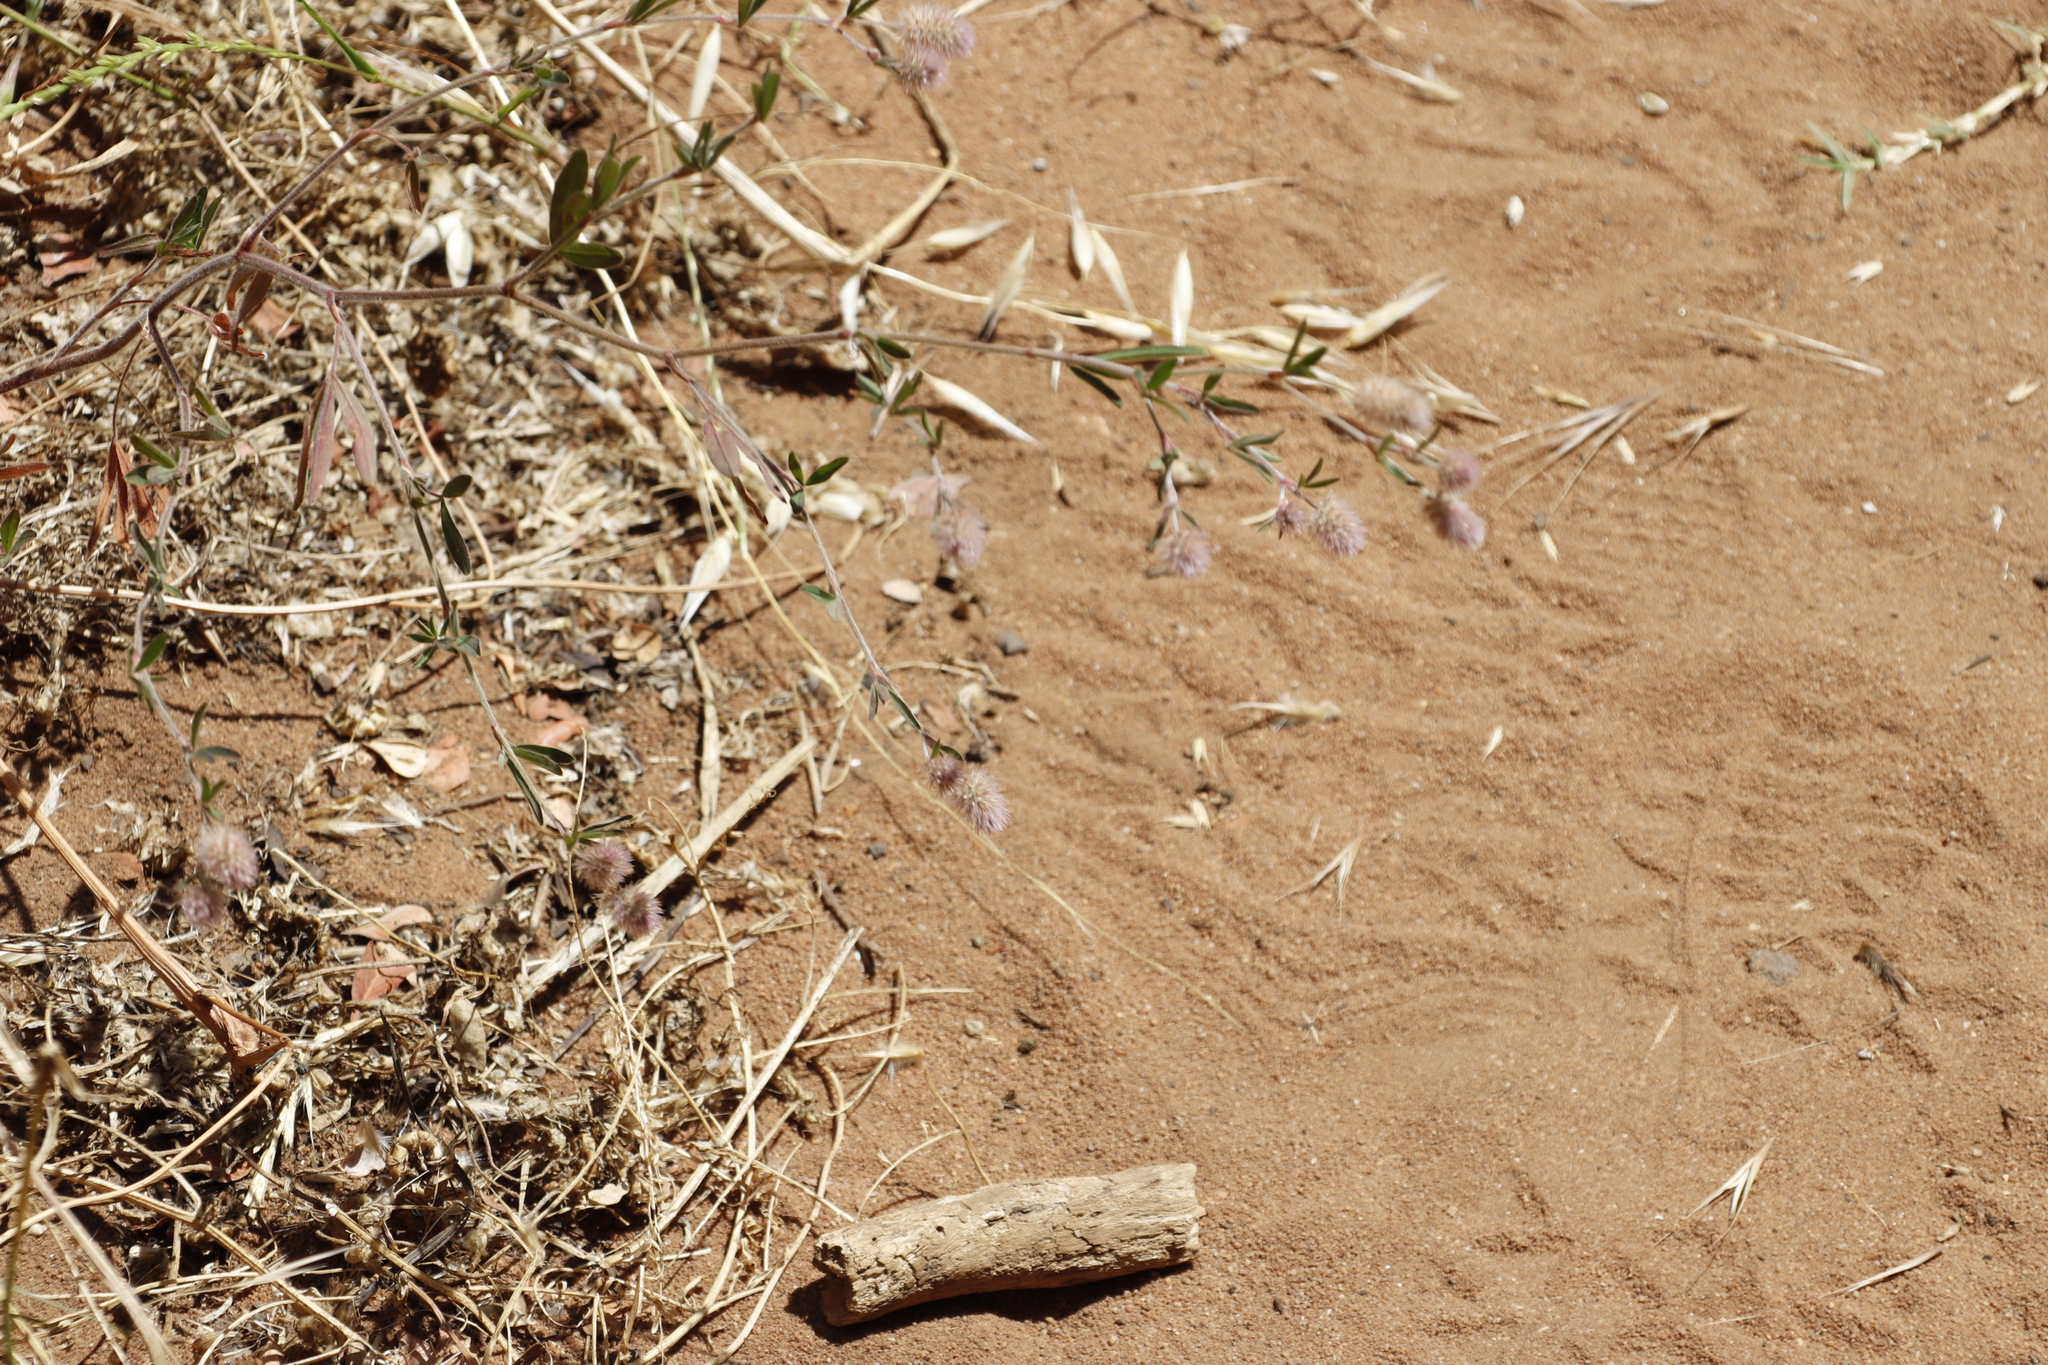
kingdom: Plantae
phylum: Tracheophyta
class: Magnoliopsida
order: Fabales
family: Fabaceae
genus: Trifolium
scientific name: Trifolium arvense
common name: Hare's-foot clover
